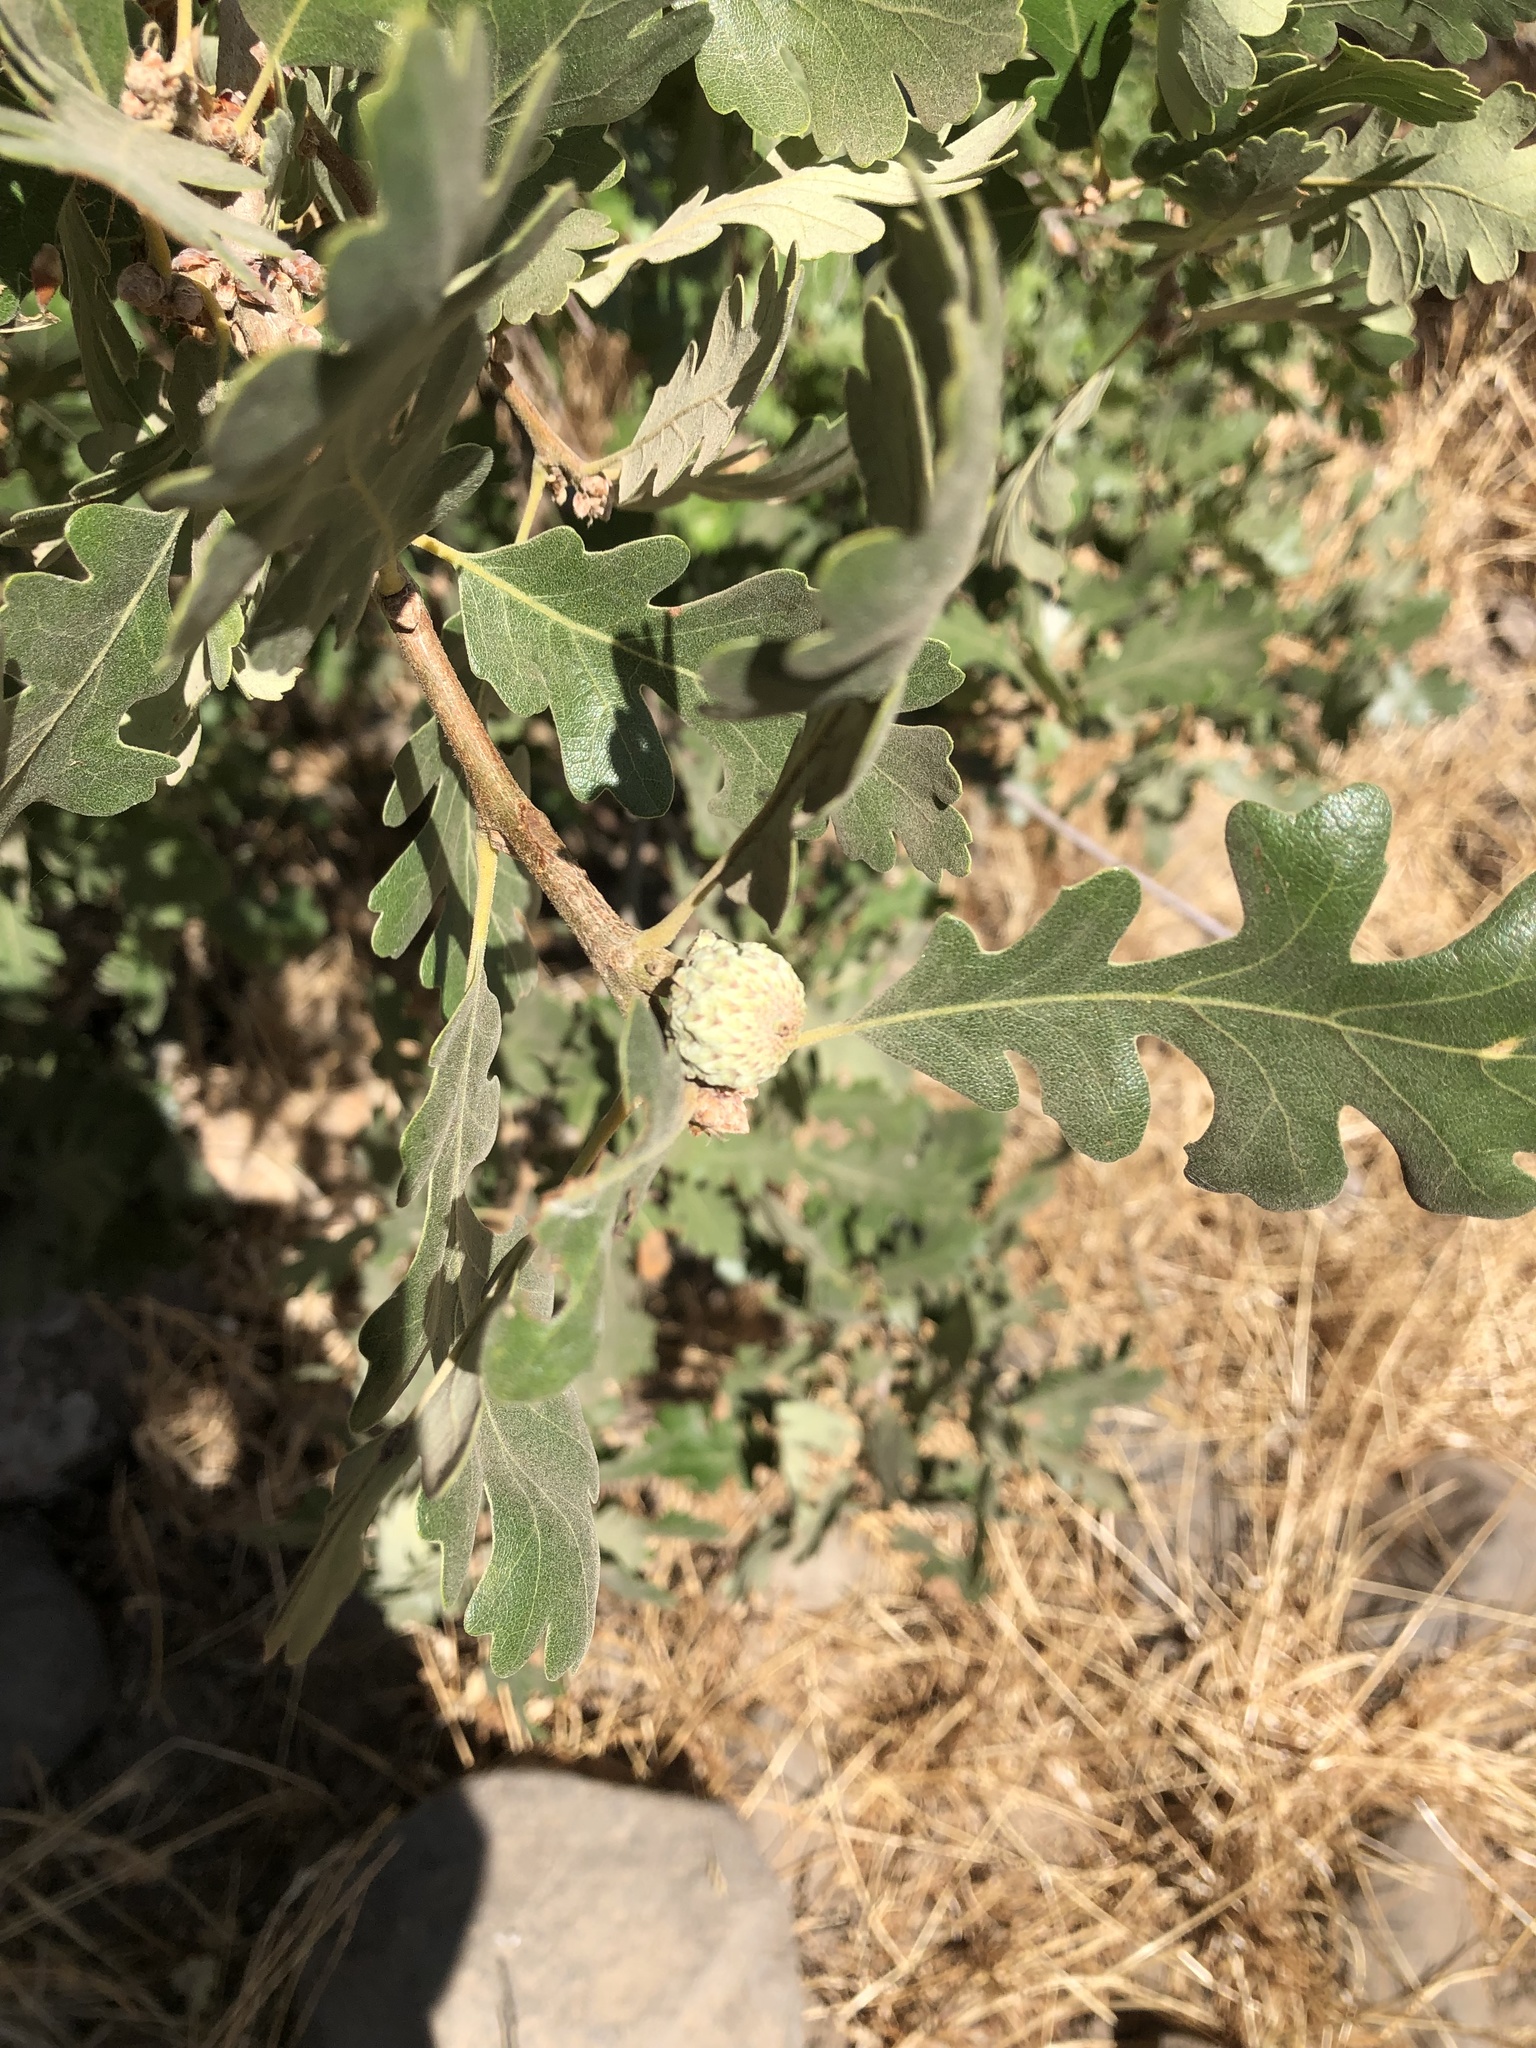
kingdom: Plantae
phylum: Tracheophyta
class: Magnoliopsida
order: Fagales
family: Fagaceae
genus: Quercus
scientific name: Quercus lobata
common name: Valley oak
